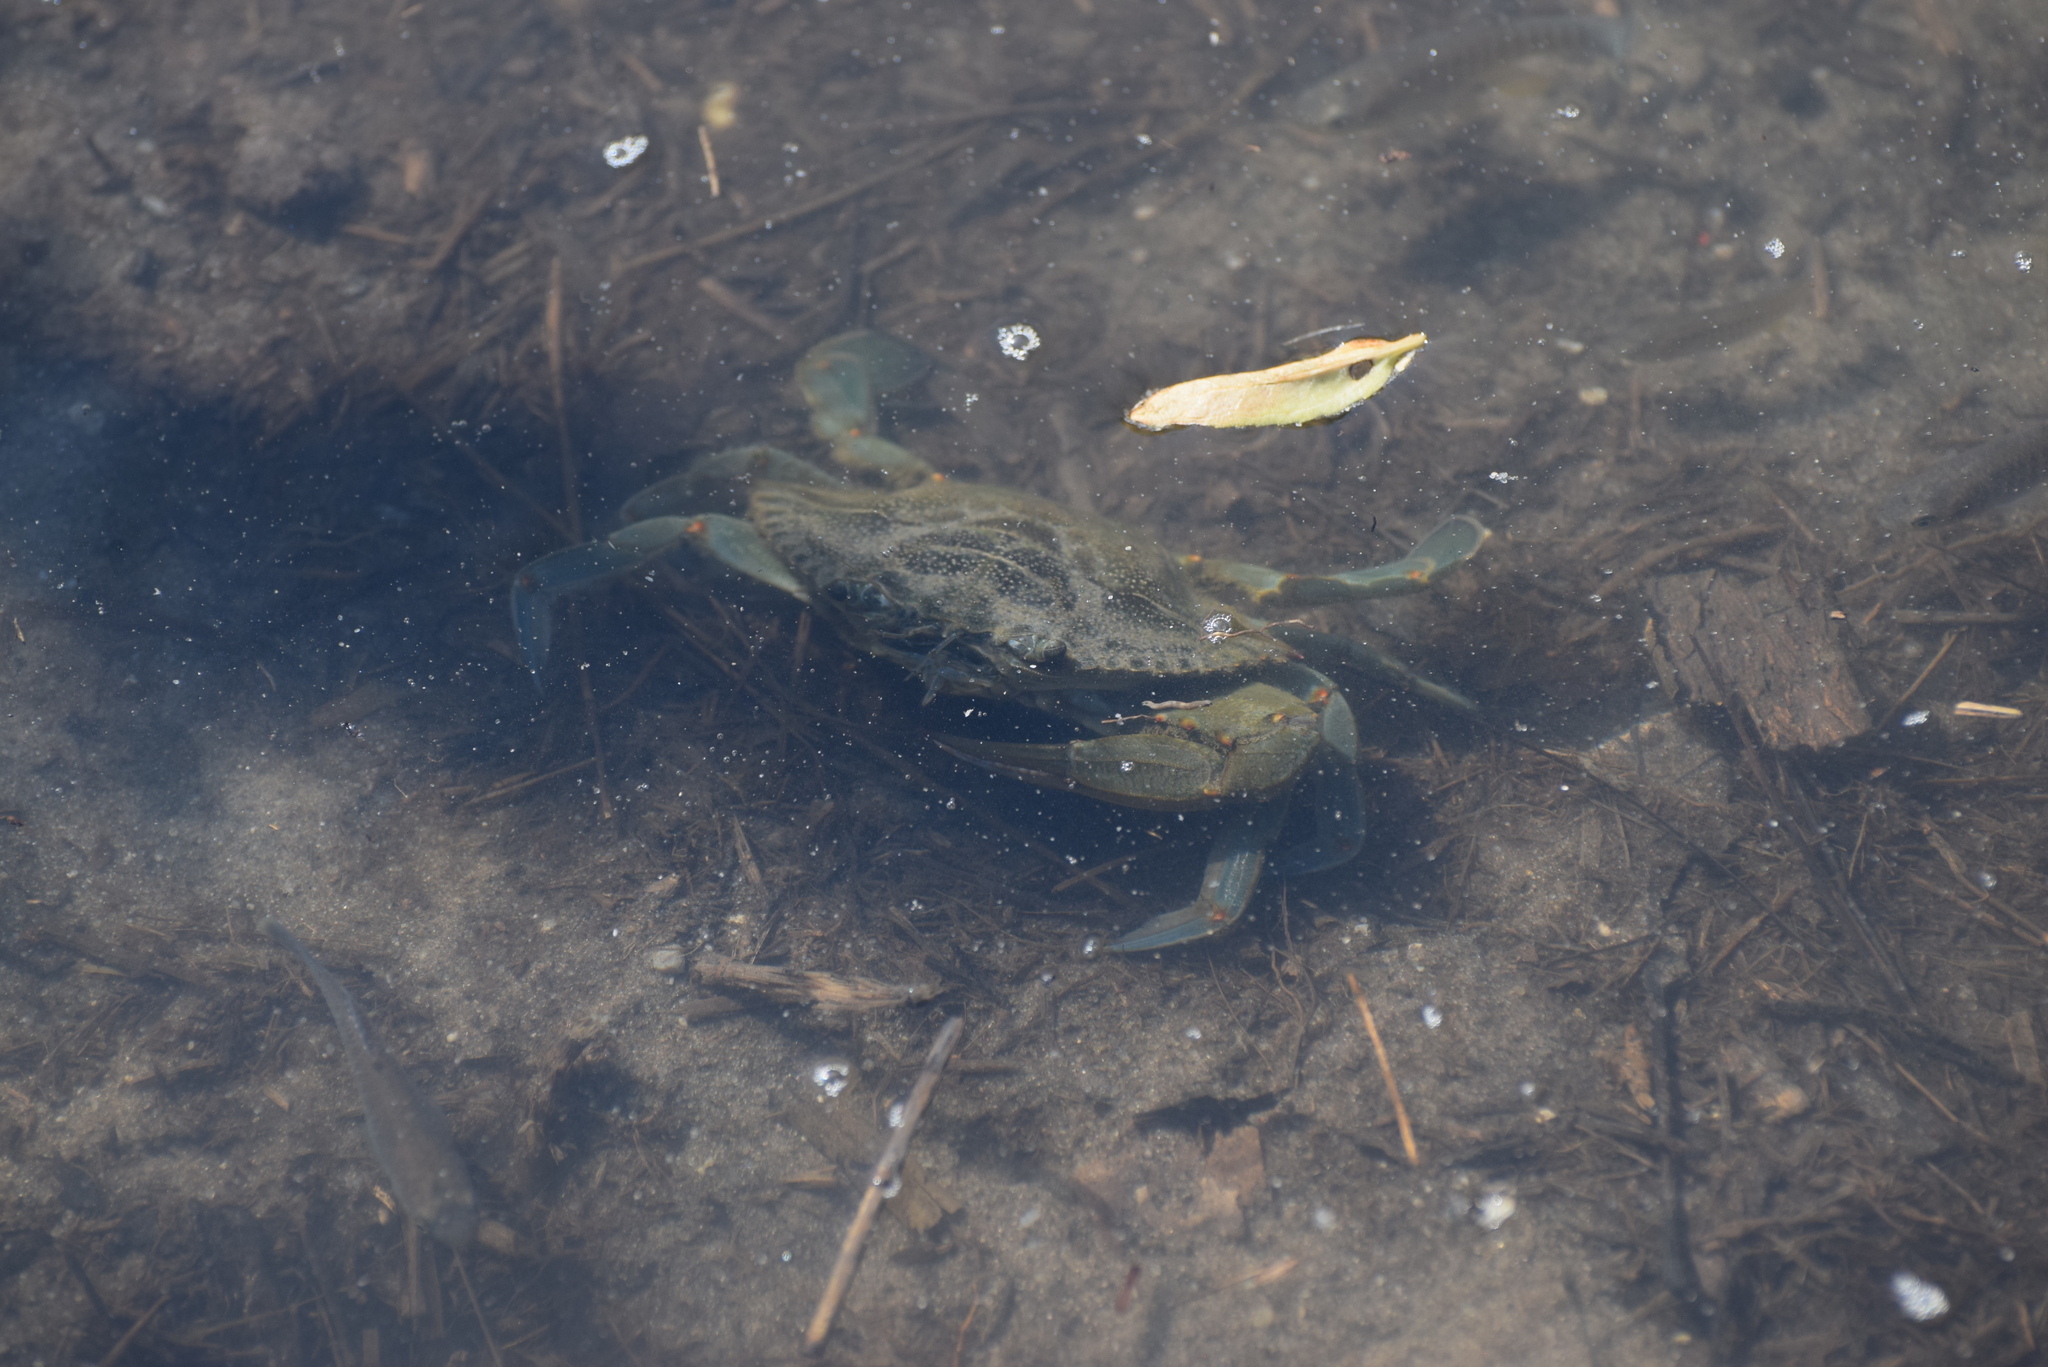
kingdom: Animalia
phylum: Arthropoda
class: Malacostraca
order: Decapoda
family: Portunidae
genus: Callinectes
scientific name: Callinectes sapidus
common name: Blue crab
